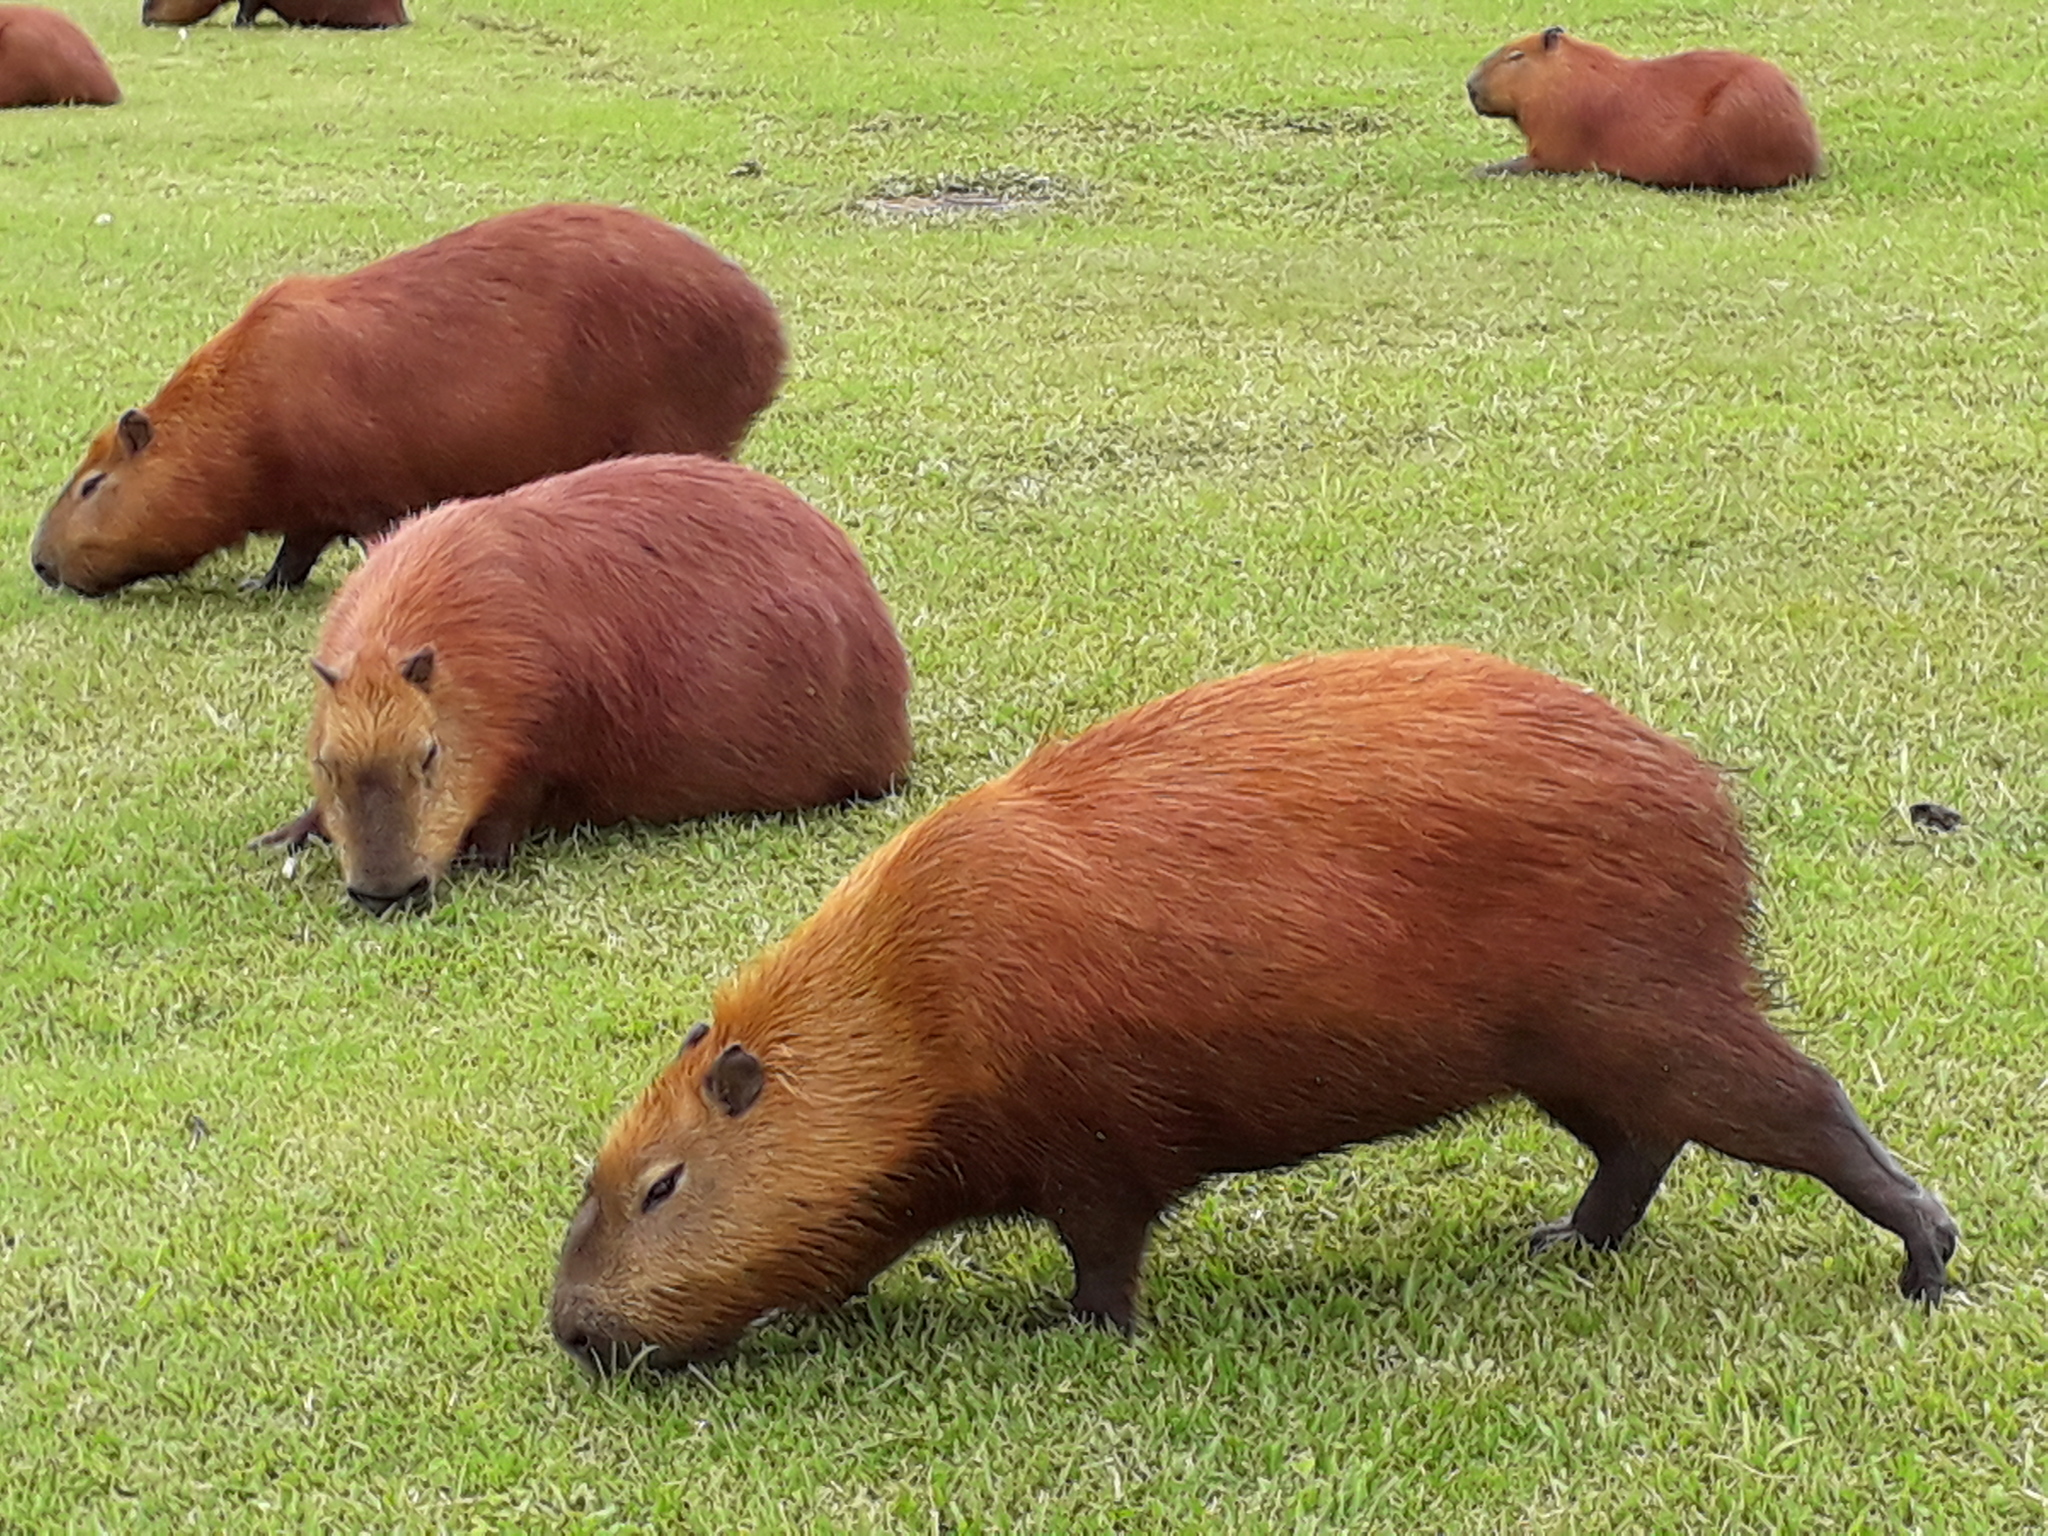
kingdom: Animalia
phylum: Chordata
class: Mammalia
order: Rodentia
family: Caviidae
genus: Hydrochoerus
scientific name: Hydrochoerus hydrochaeris
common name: Capybara
